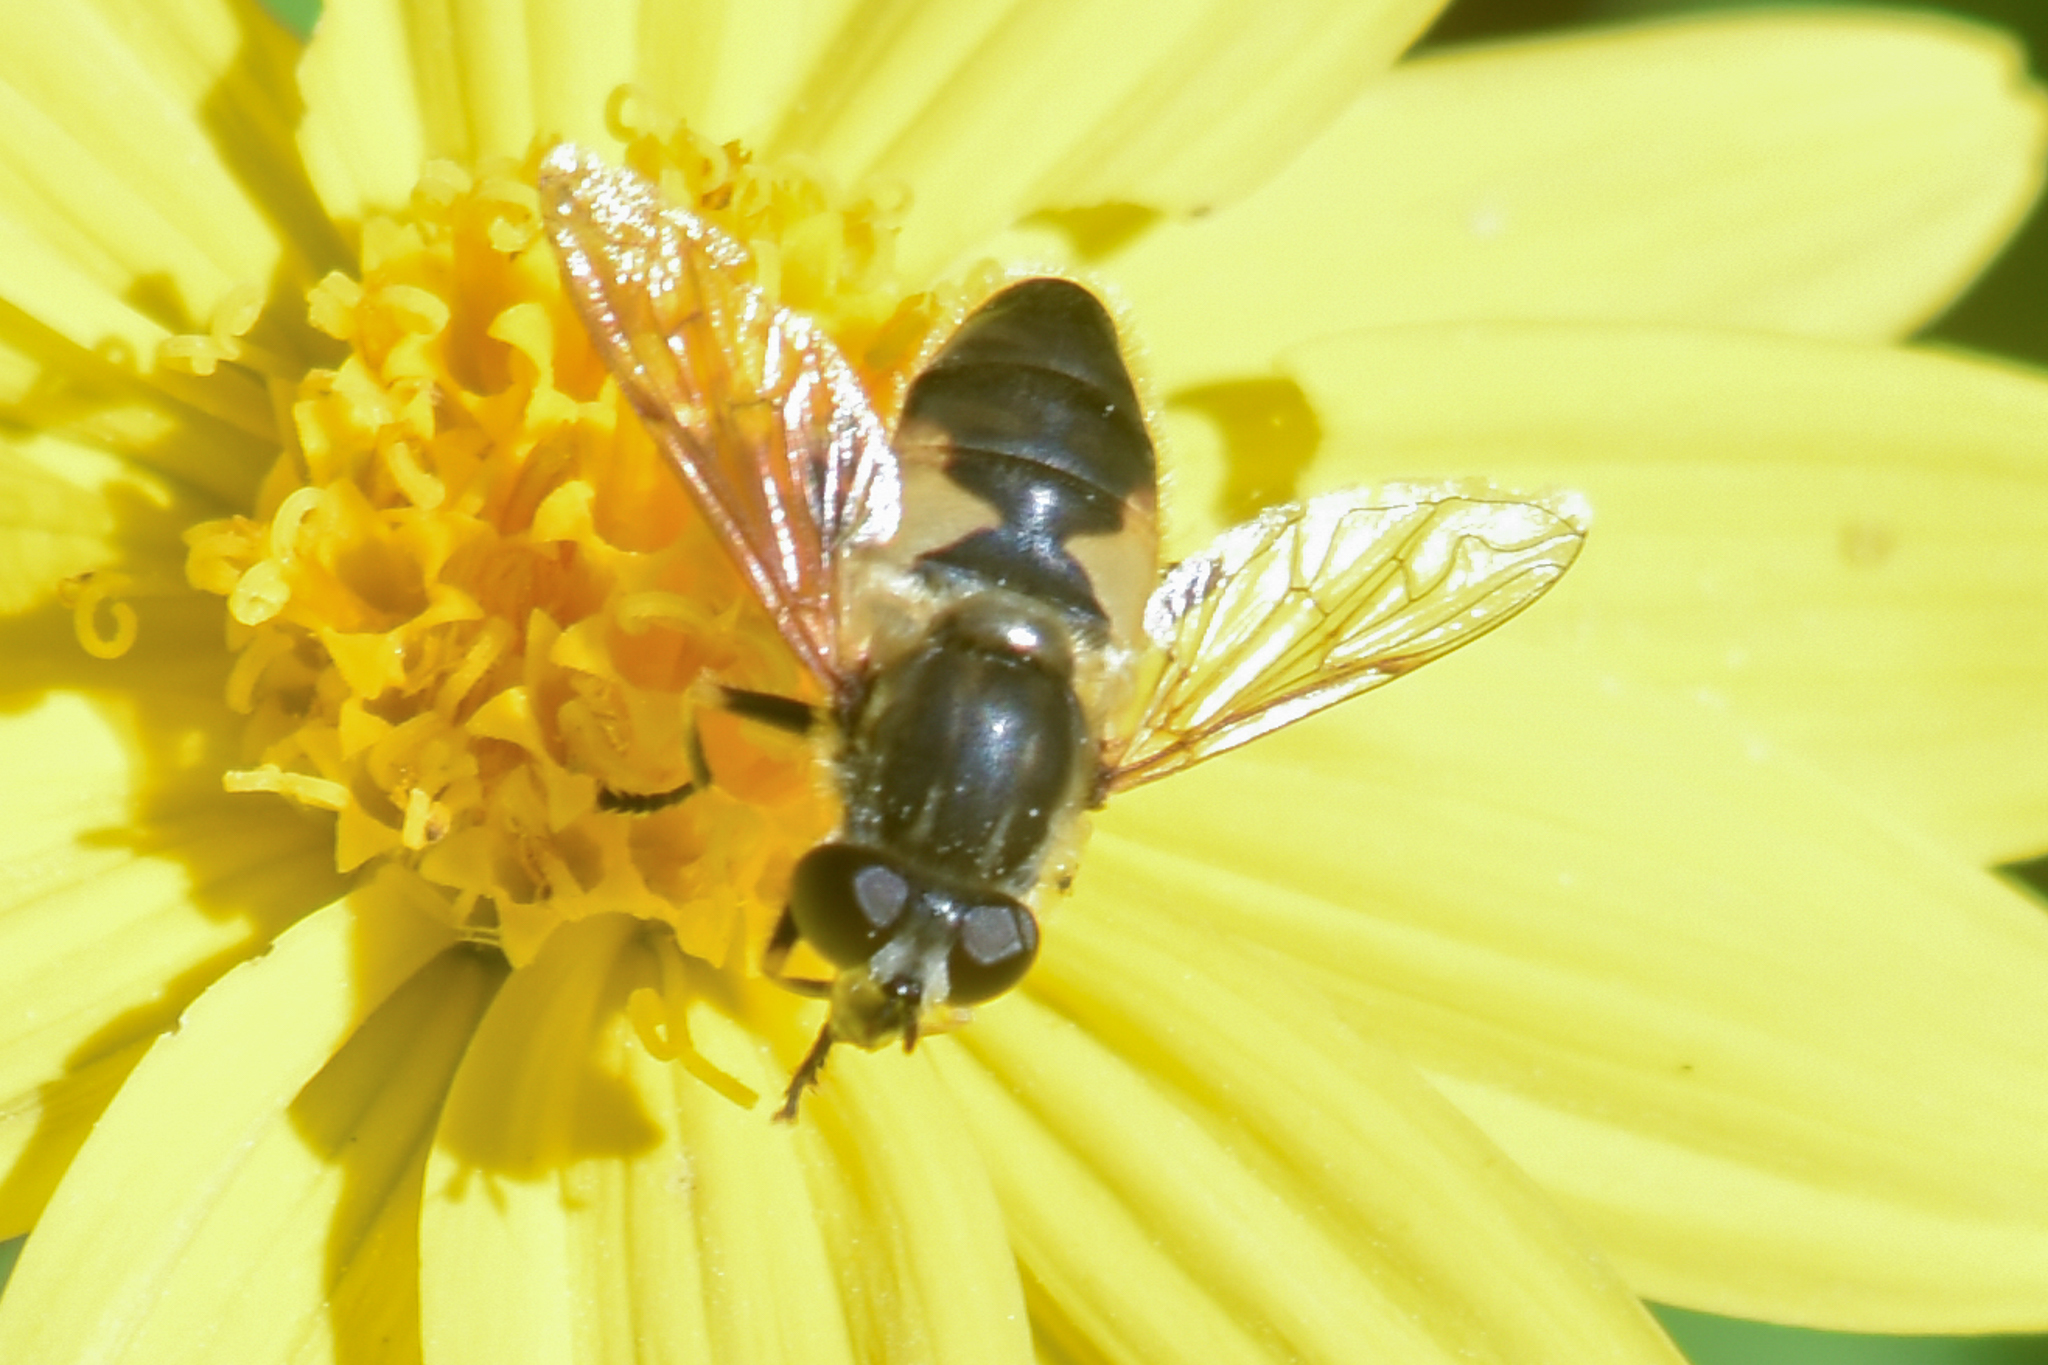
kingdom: Animalia
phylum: Arthropoda
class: Insecta
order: Diptera
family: Syrphidae
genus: Helophilus
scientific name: Helophilus lapponicus
